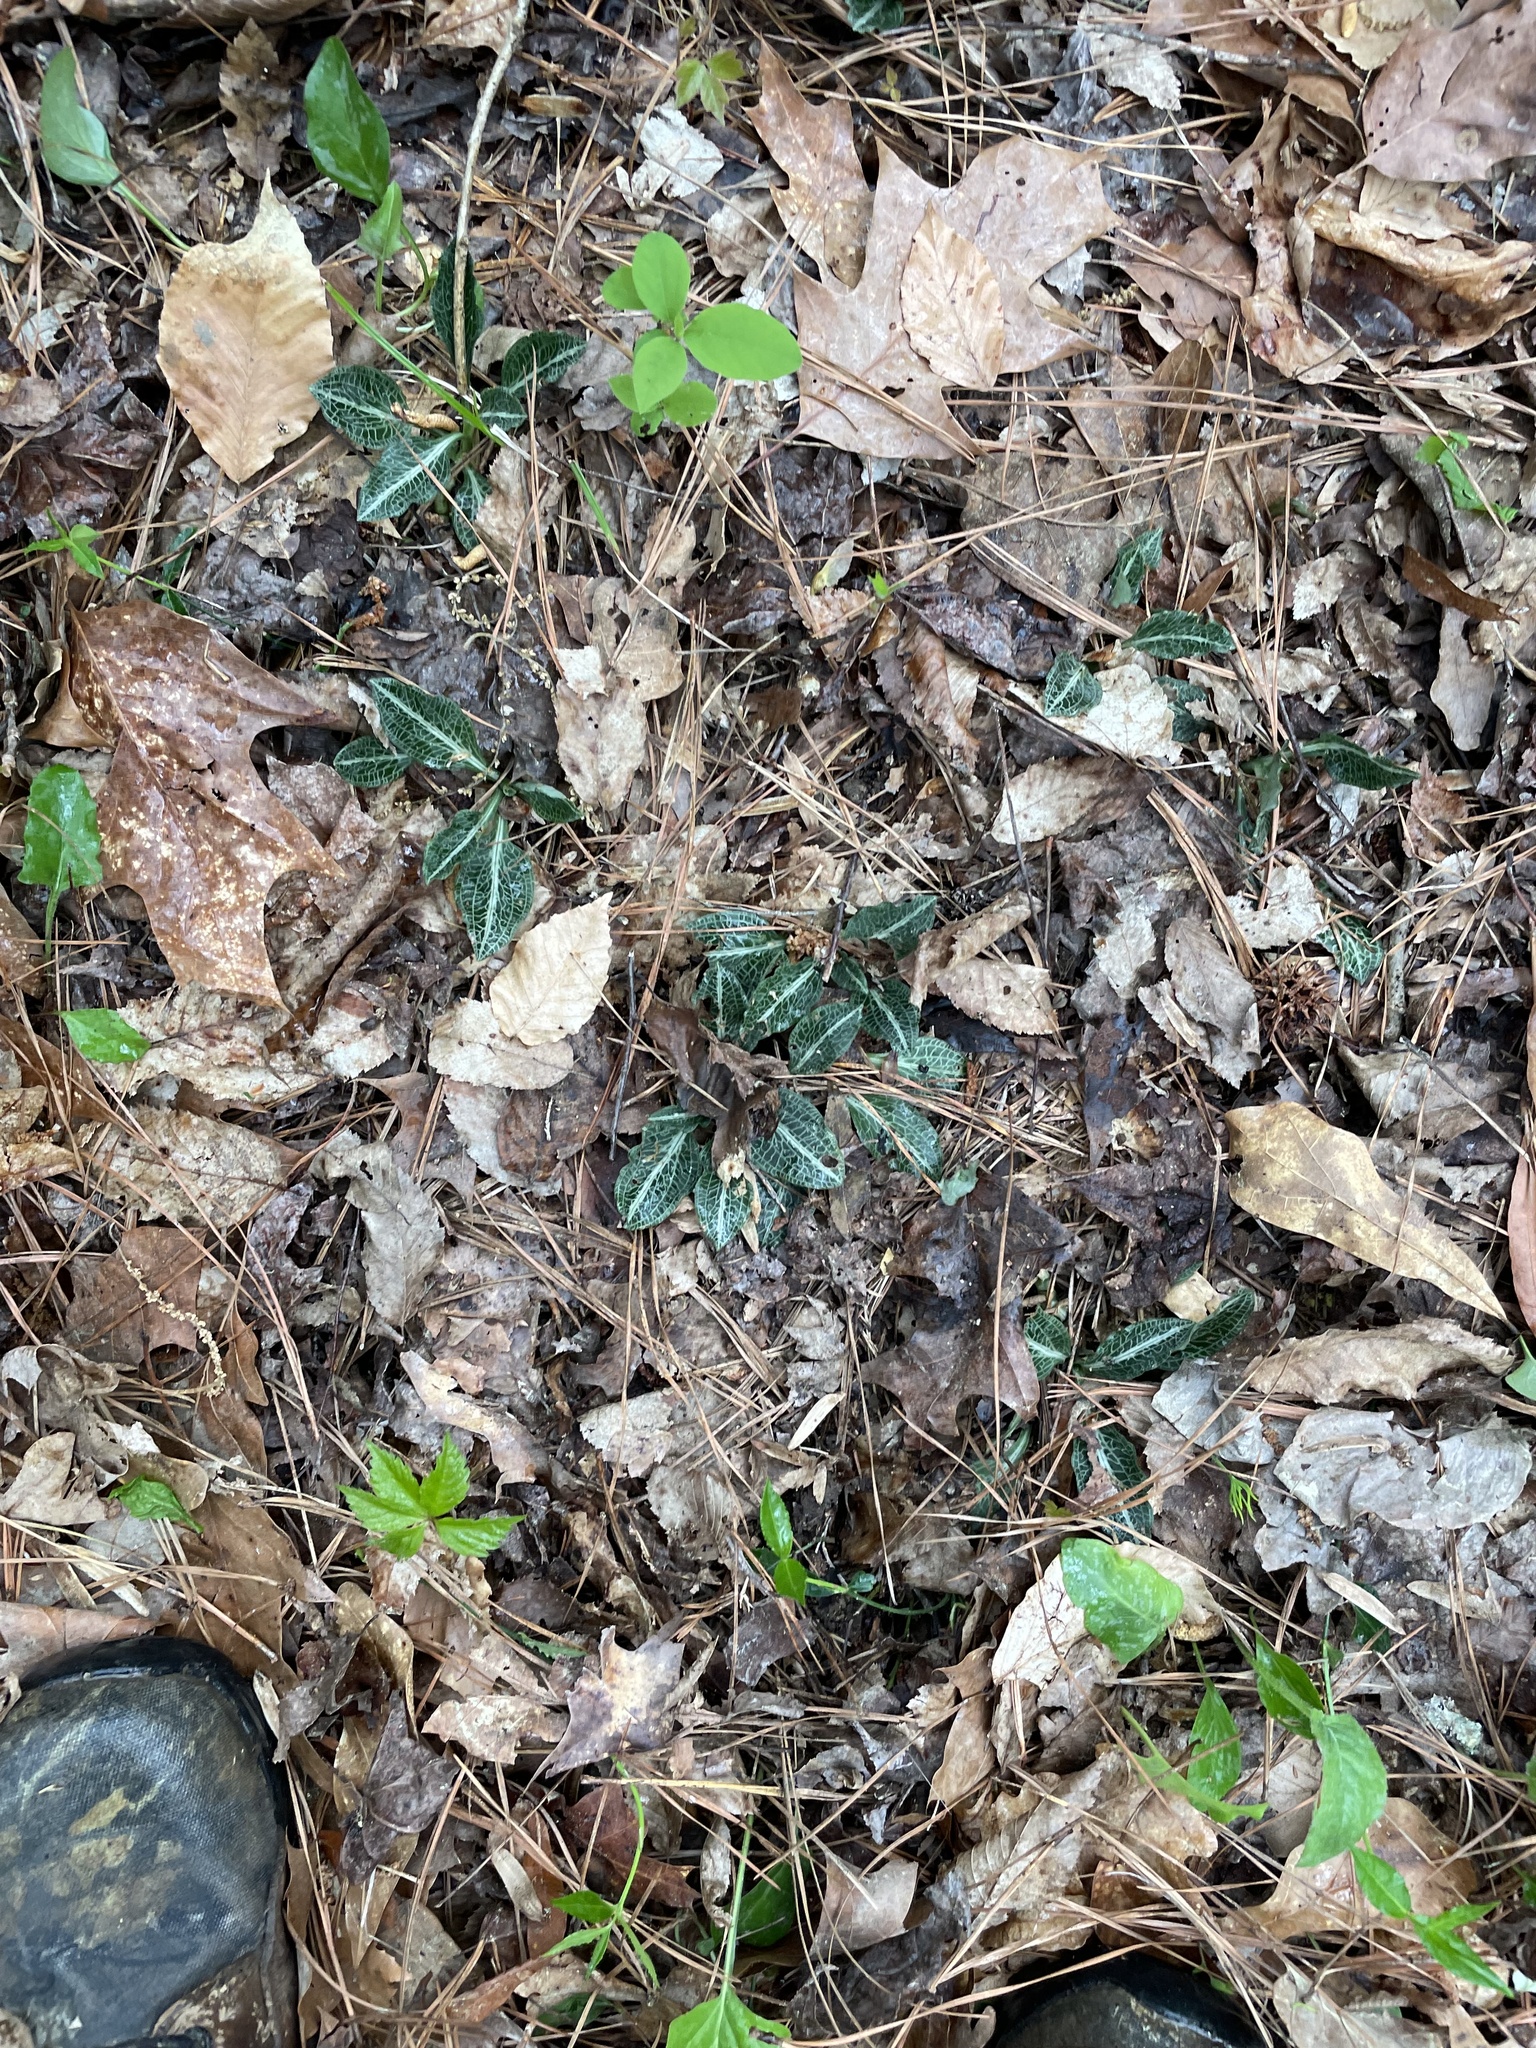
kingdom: Plantae
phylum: Tracheophyta
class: Liliopsida
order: Asparagales
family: Orchidaceae
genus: Goodyera
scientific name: Goodyera pubescens
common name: Downy rattlesnake-plantain
